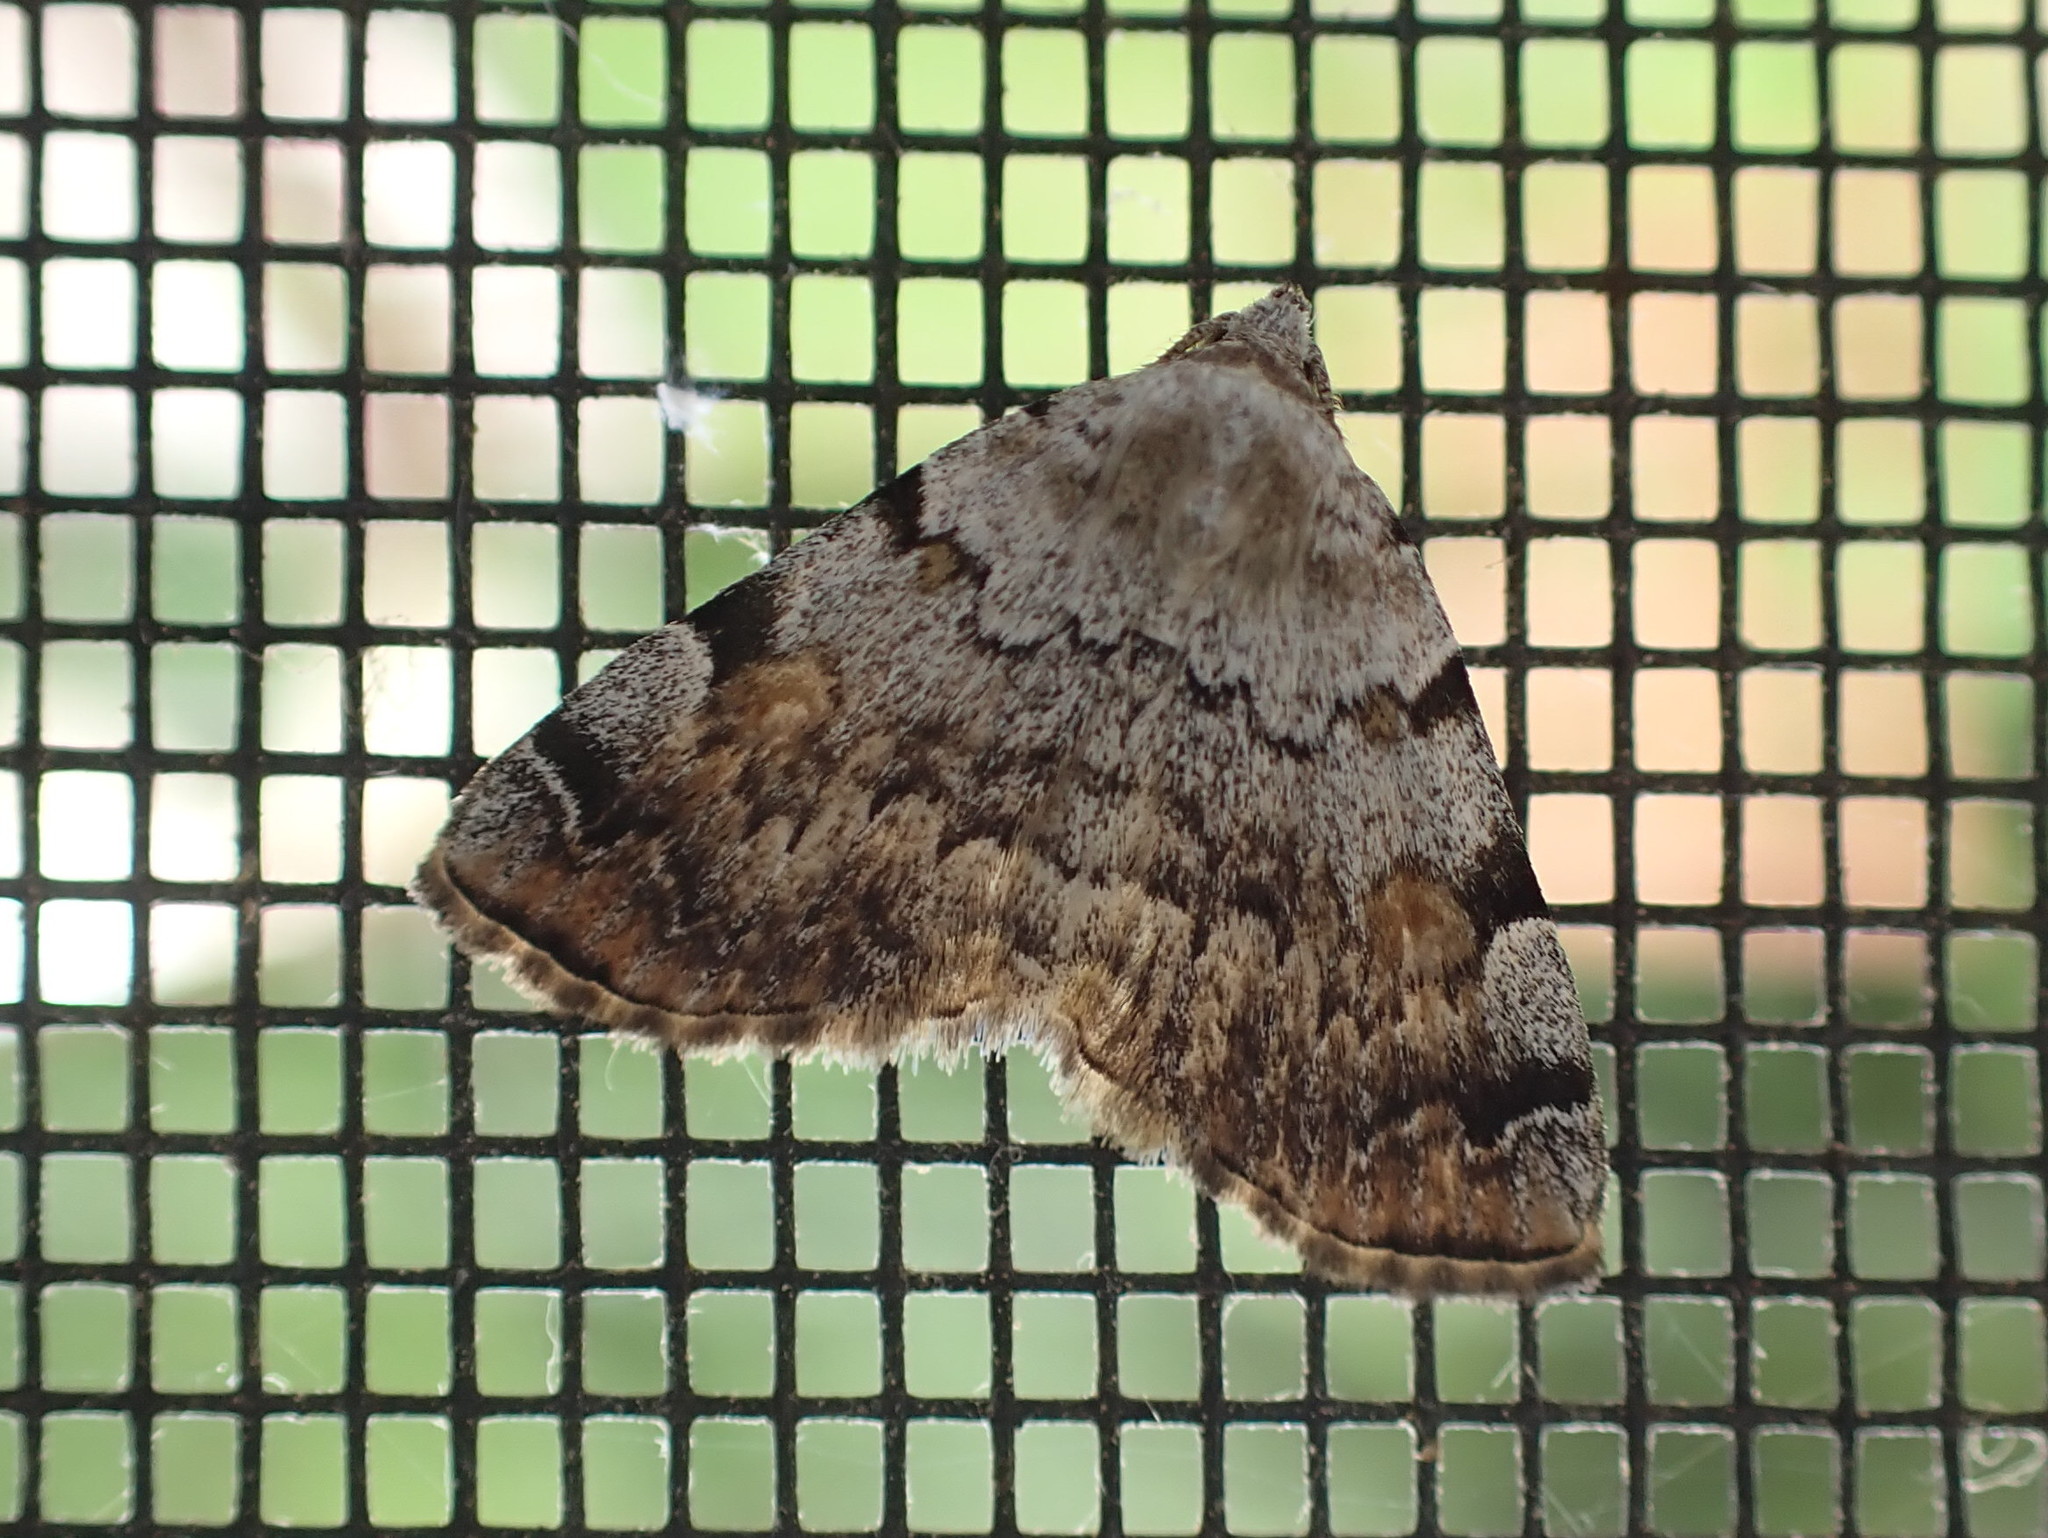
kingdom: Animalia
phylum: Arthropoda
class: Insecta
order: Lepidoptera
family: Erebidae
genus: Idia
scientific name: Idia americalis
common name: American idia moth
